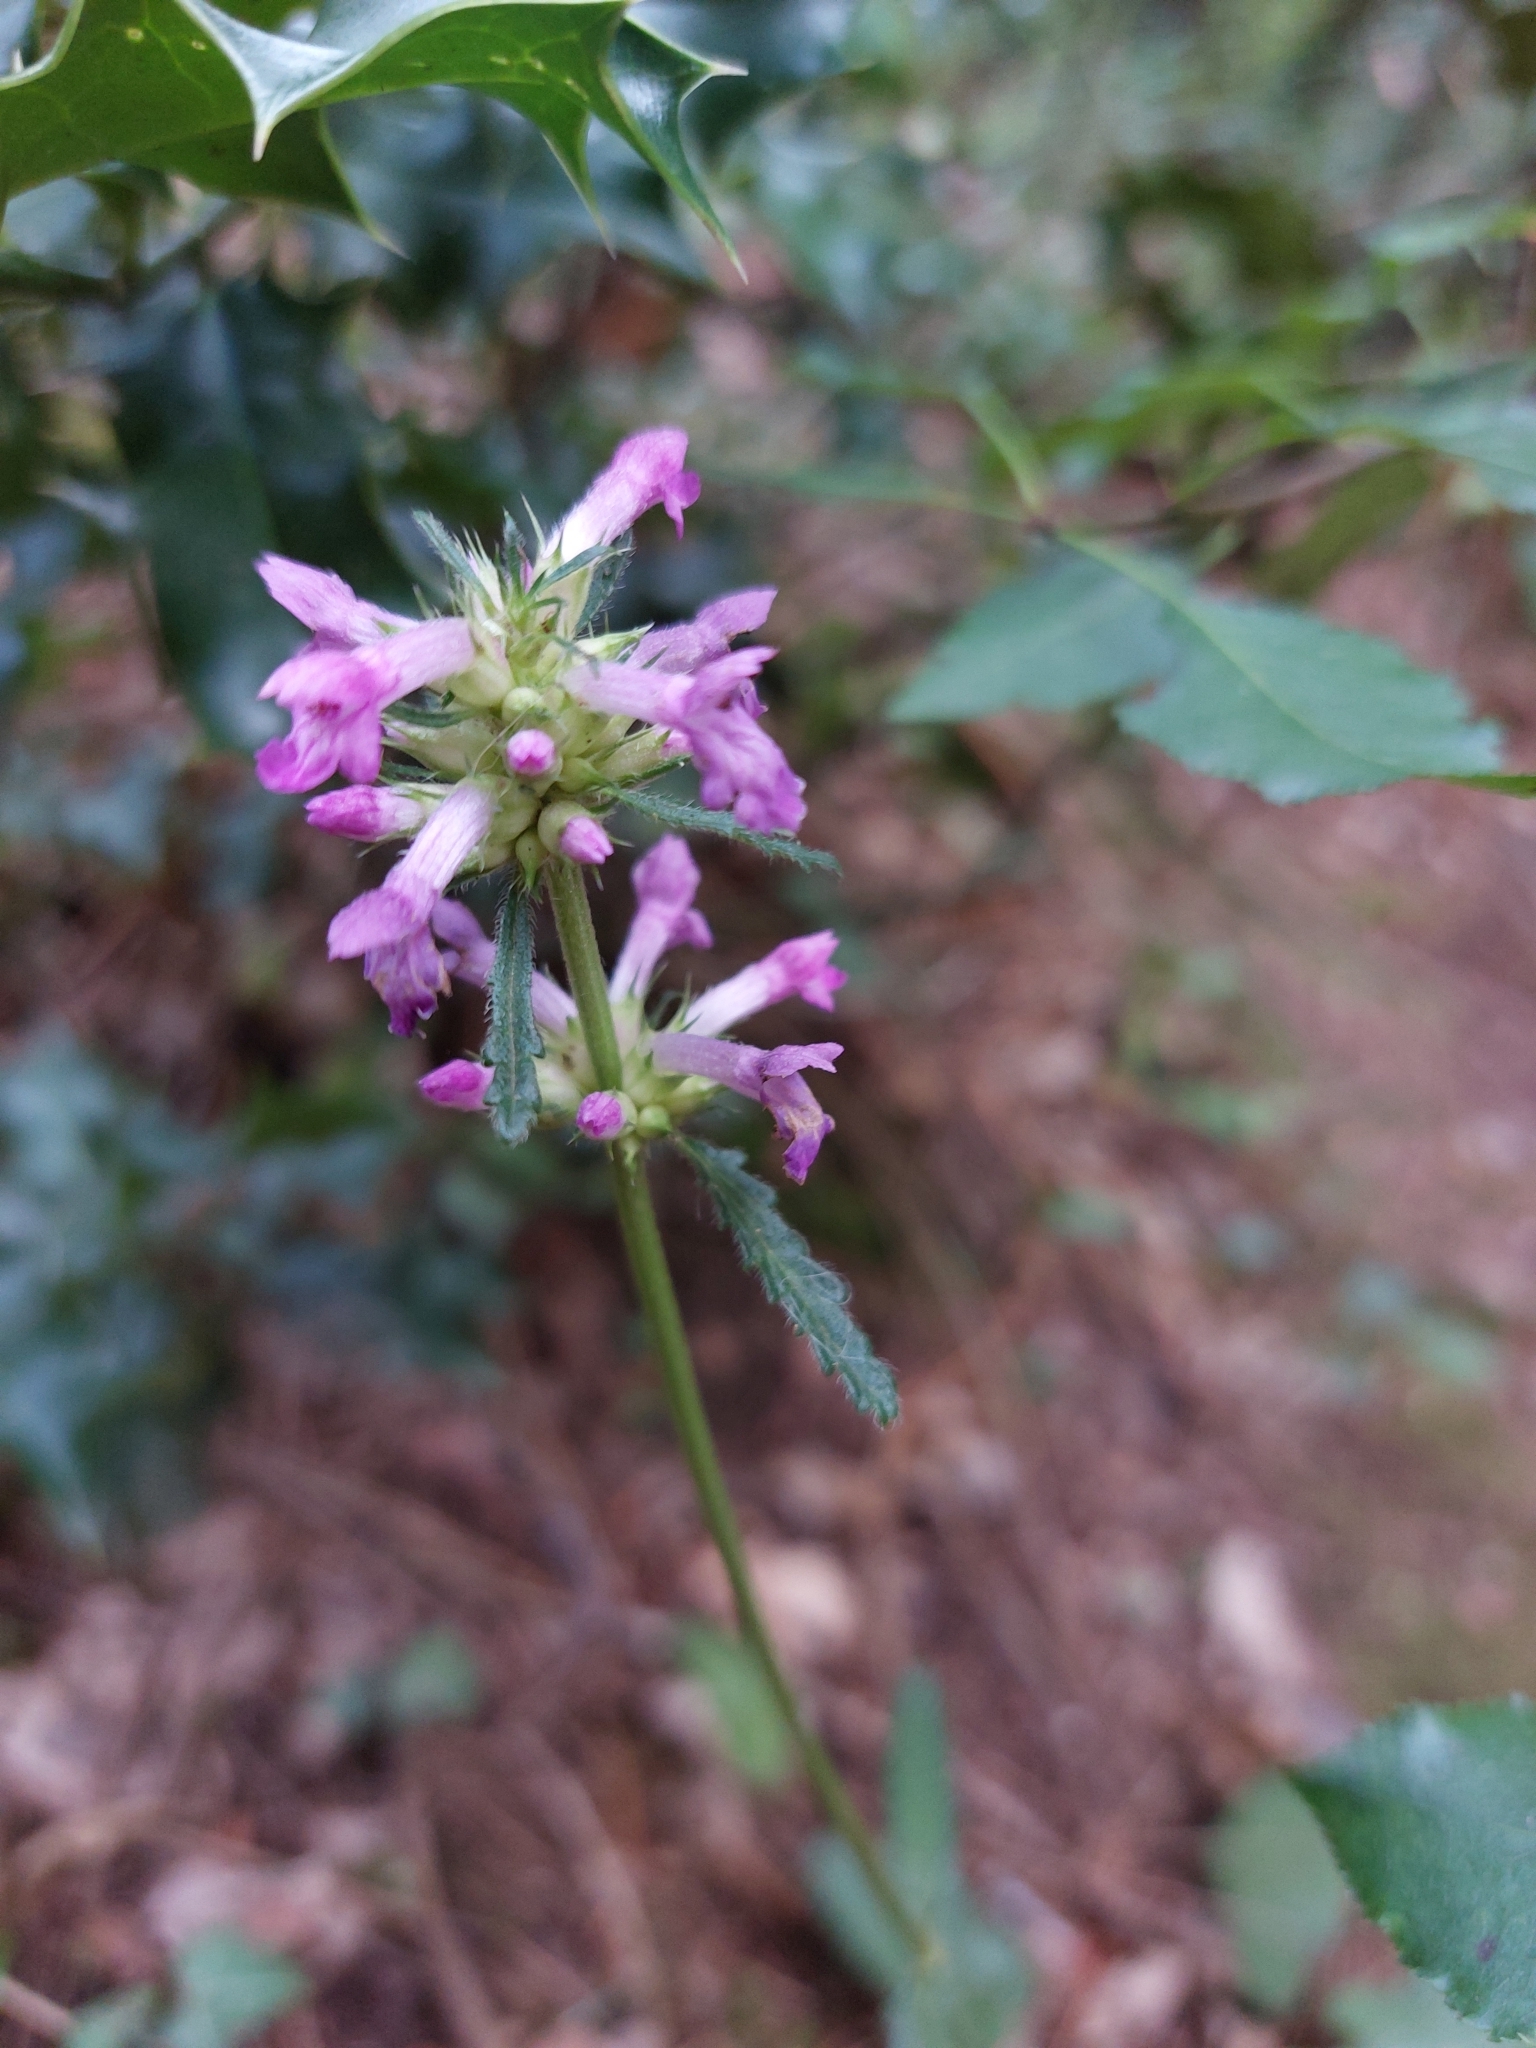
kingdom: Plantae
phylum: Tracheophyta
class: Magnoliopsida
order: Lamiales
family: Lamiaceae
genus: Betonica
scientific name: Betonica officinalis
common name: Bishop's-wort
